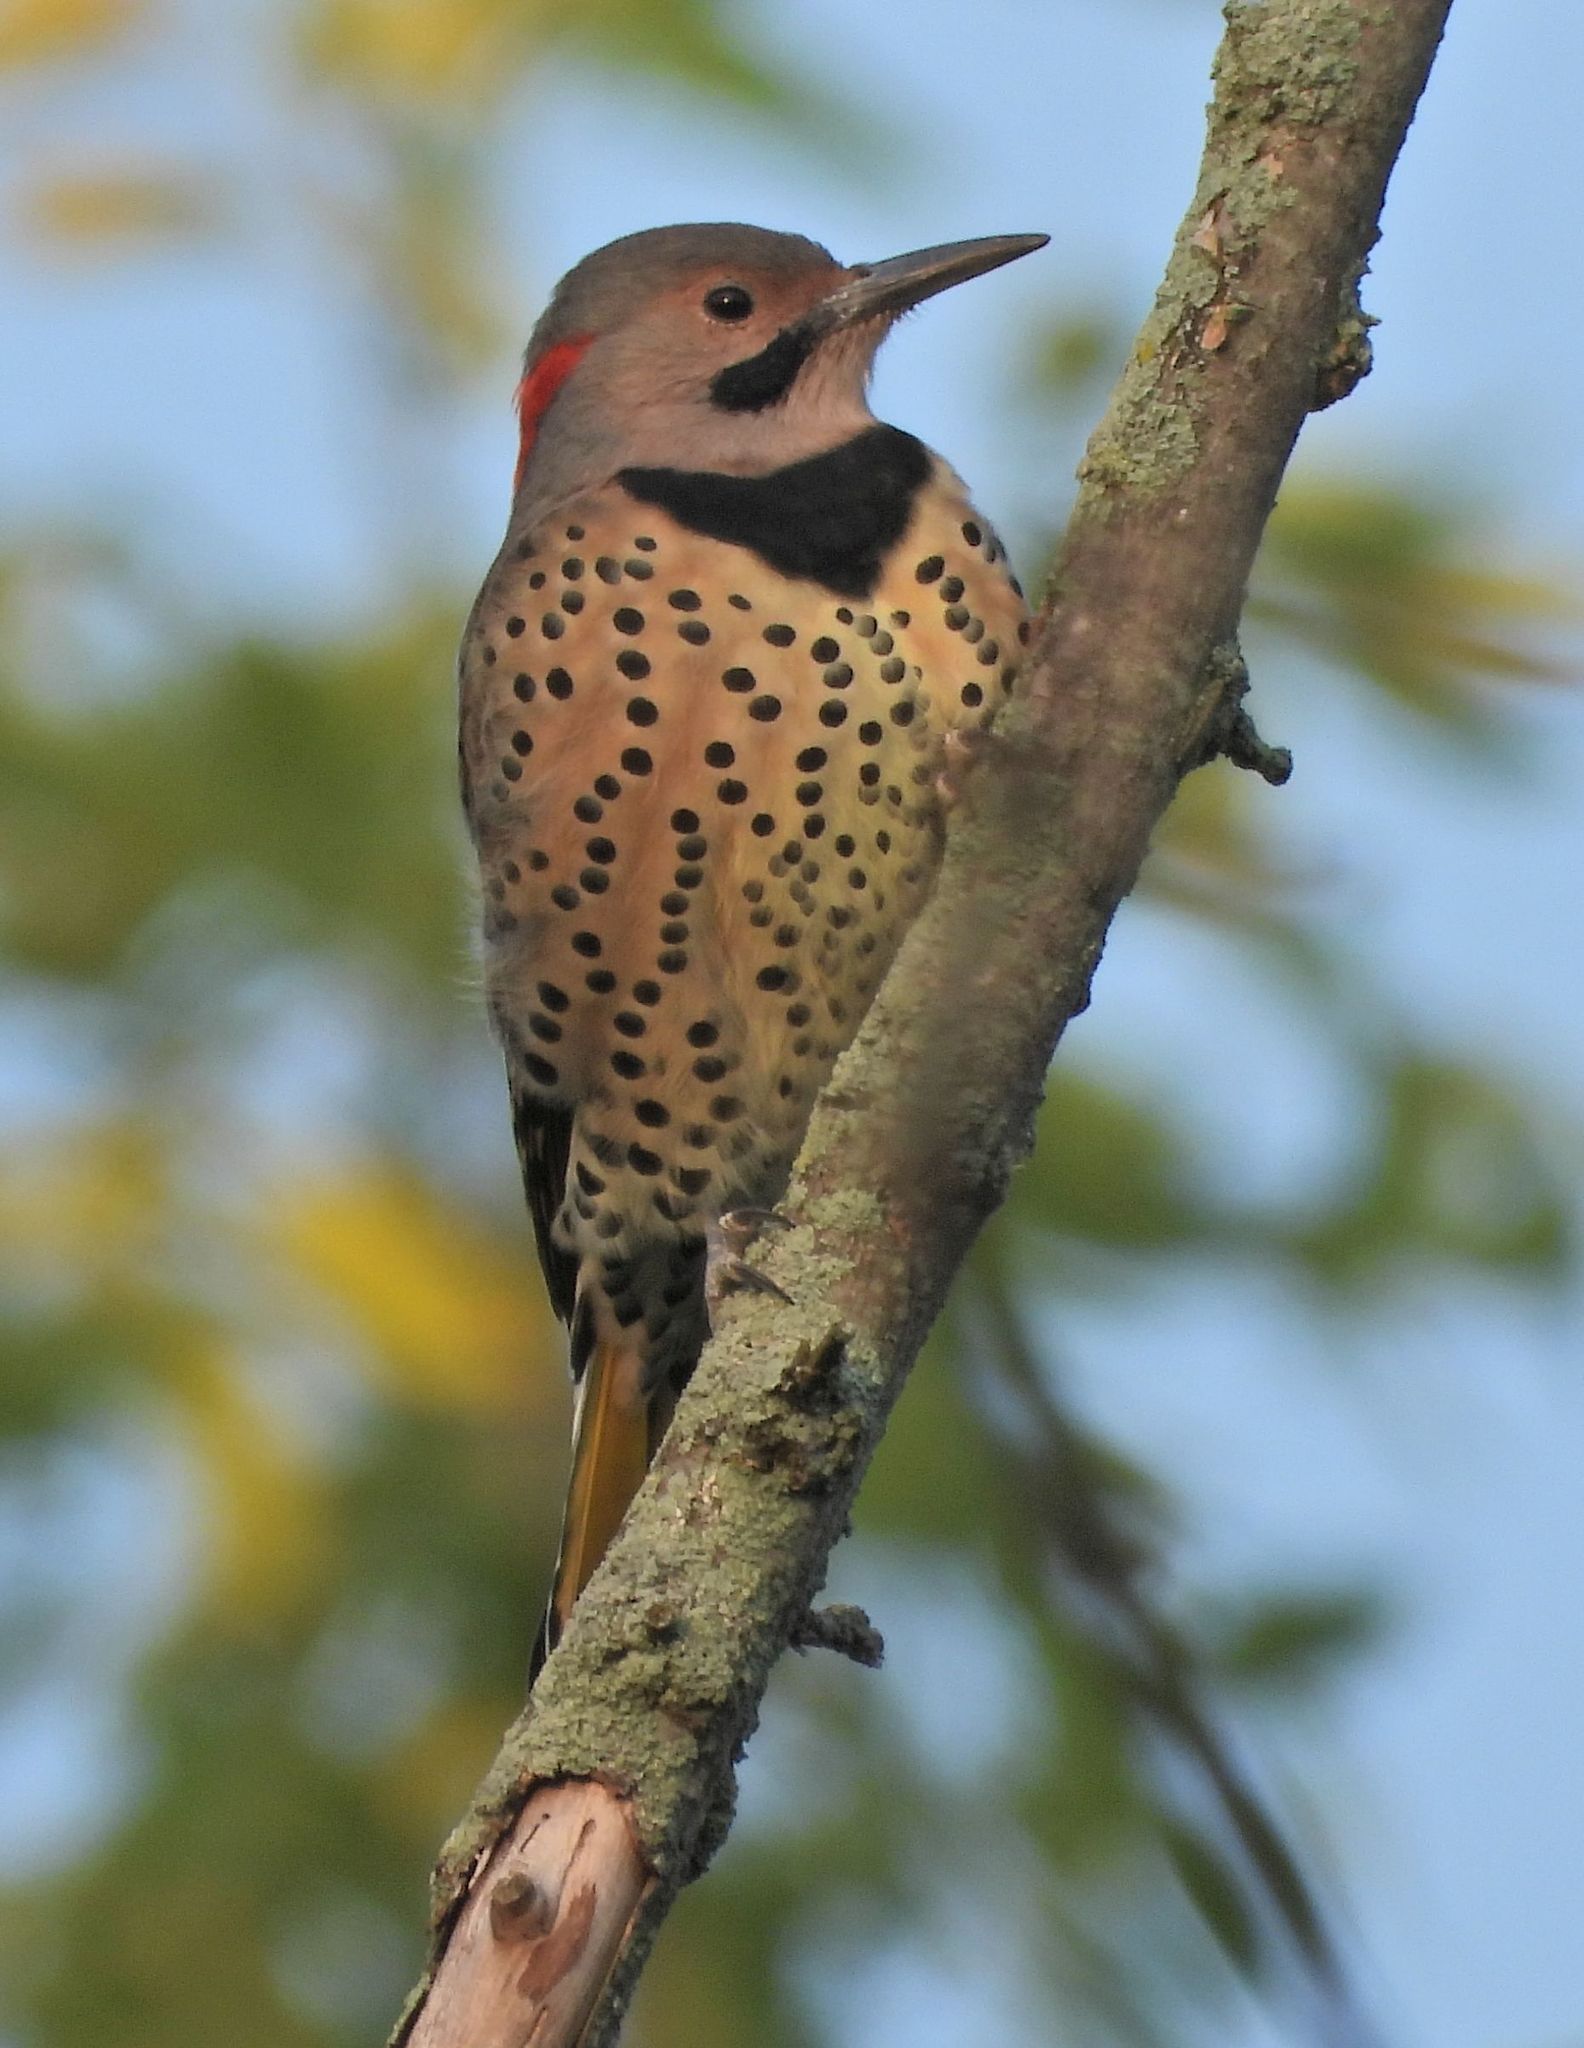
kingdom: Animalia
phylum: Chordata
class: Aves
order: Piciformes
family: Picidae
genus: Colaptes
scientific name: Colaptes auratus
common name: Northern flicker
